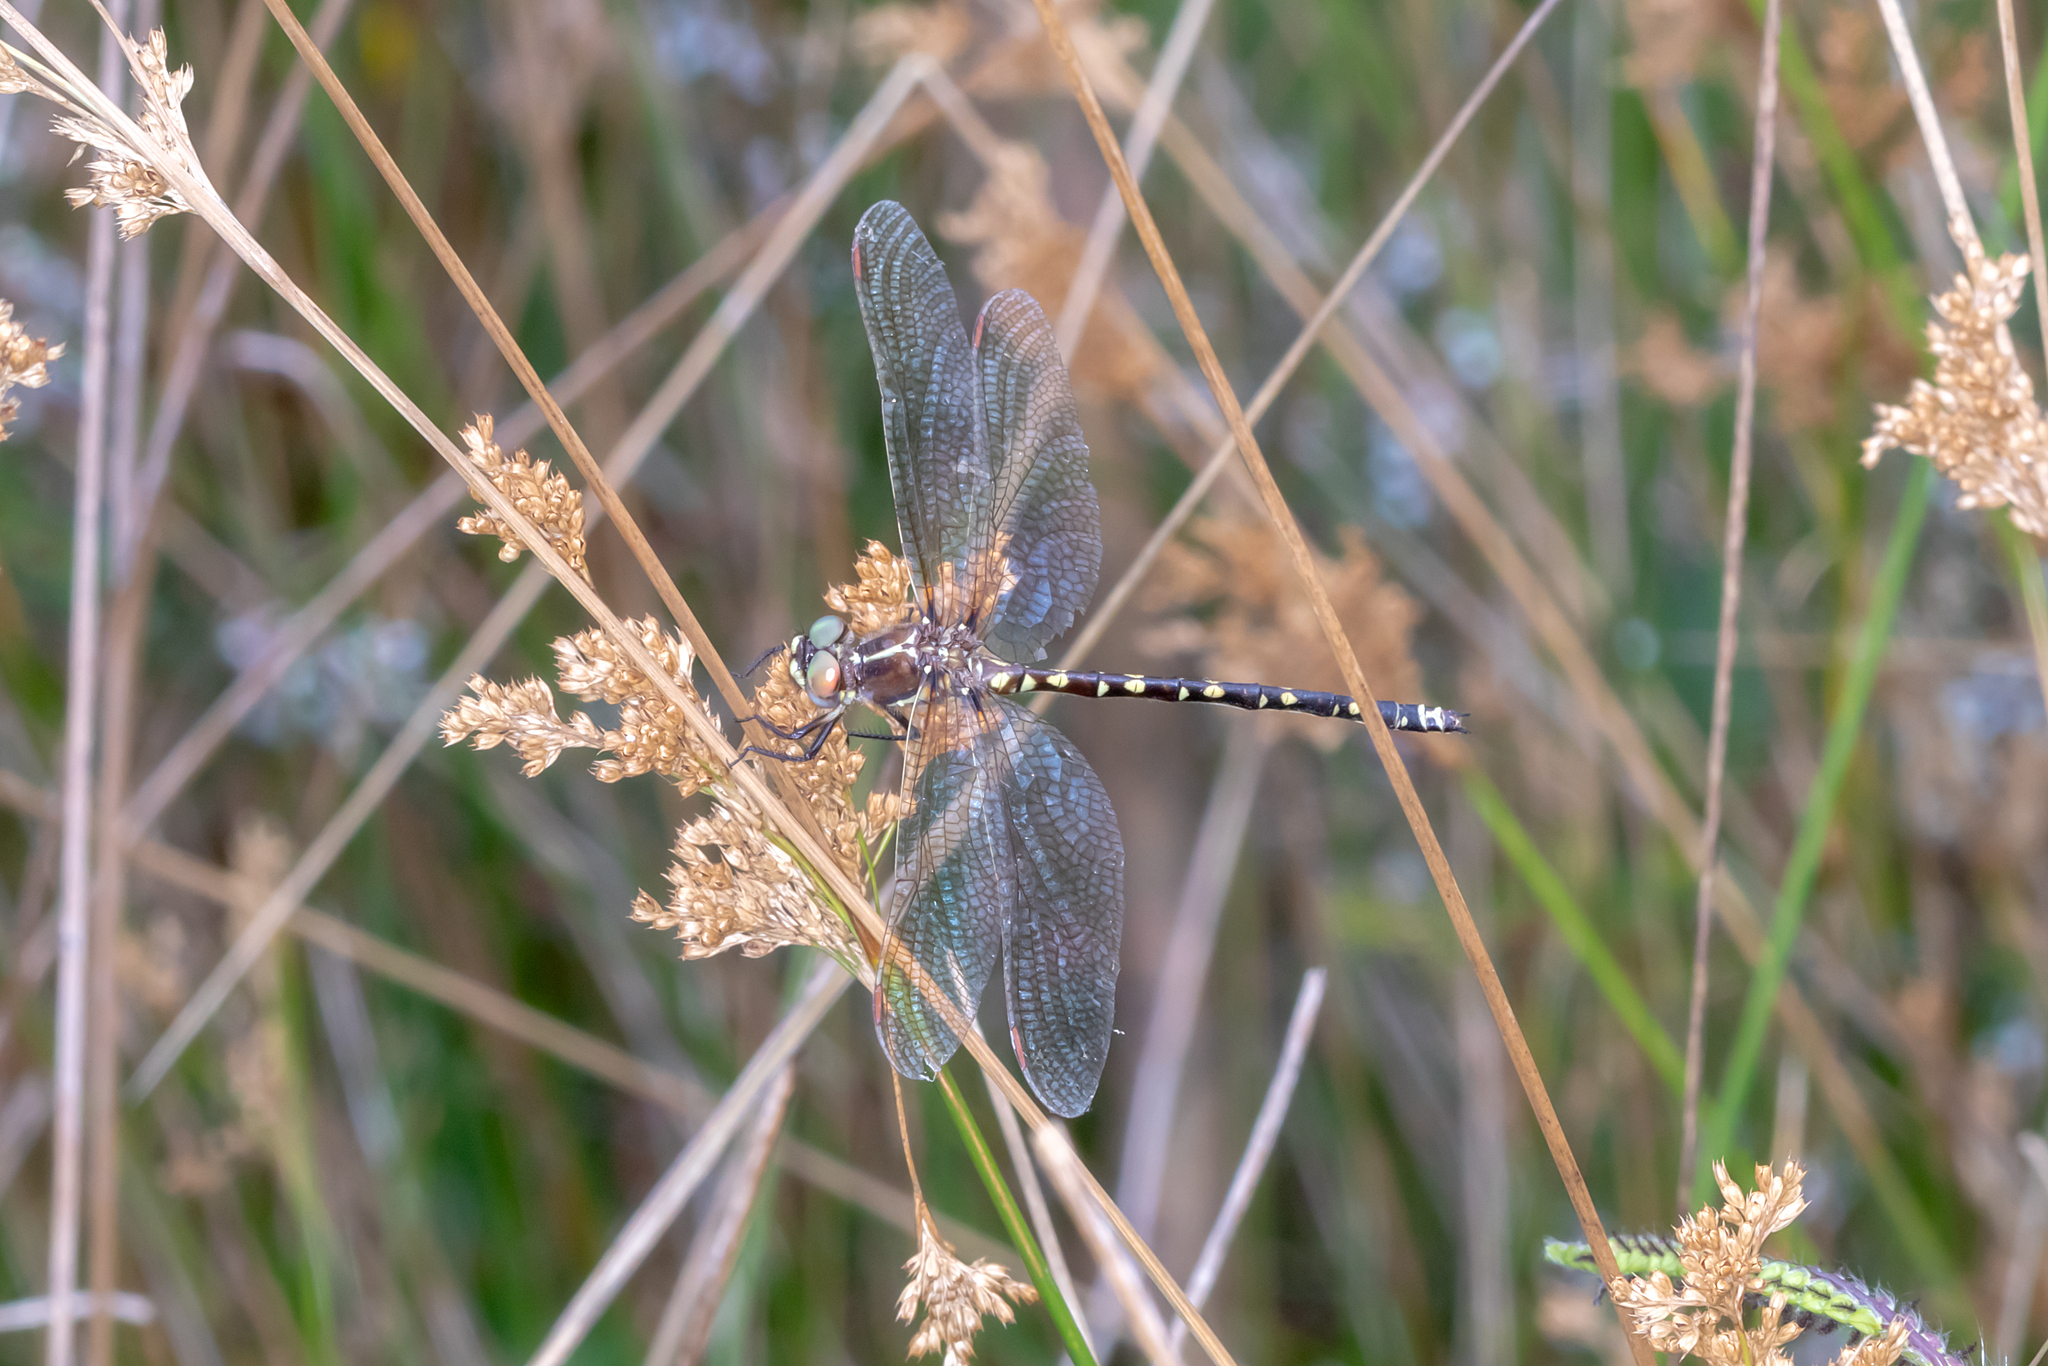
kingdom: Animalia
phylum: Arthropoda
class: Insecta
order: Odonata
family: Synthemistidae
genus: Synthemis
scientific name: Synthemis eustalacta
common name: Swamp tigertail
